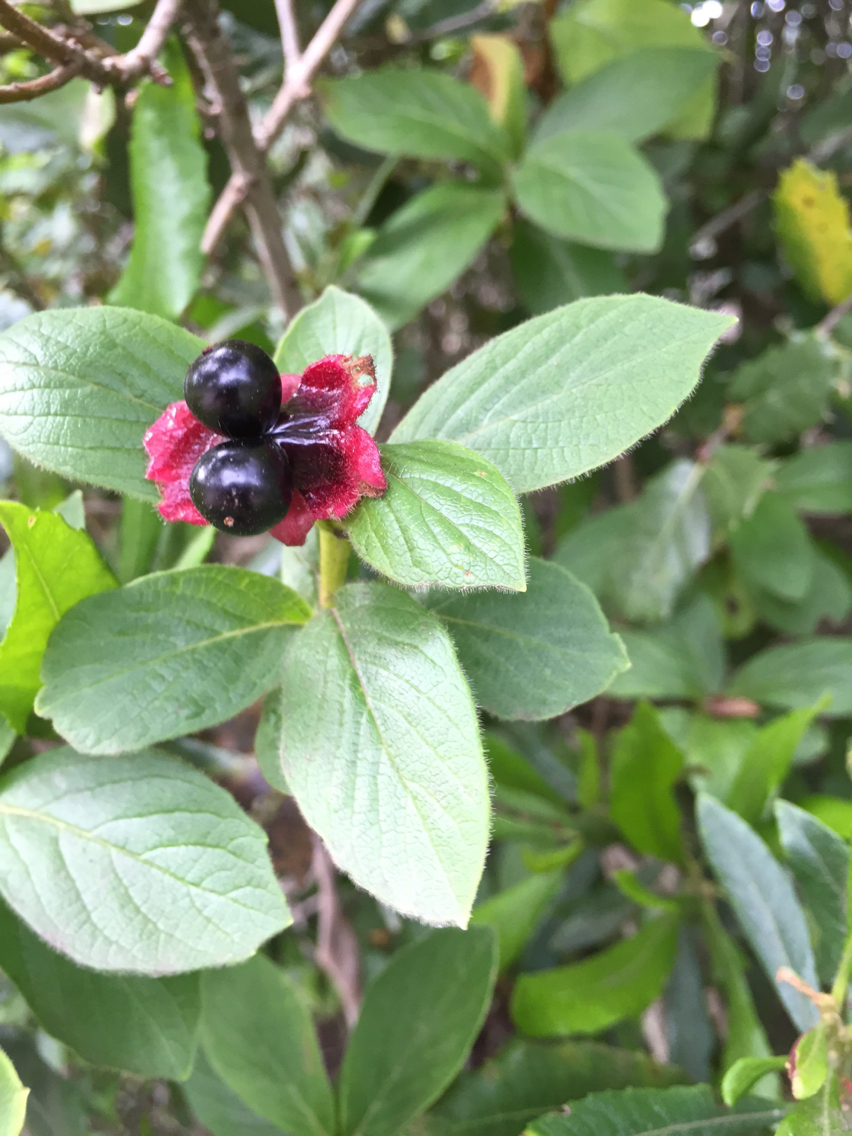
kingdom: Plantae
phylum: Tracheophyta
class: Magnoliopsida
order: Dipsacales
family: Caprifoliaceae
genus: Lonicera
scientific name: Lonicera involucrata
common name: Californian honeysuckle
